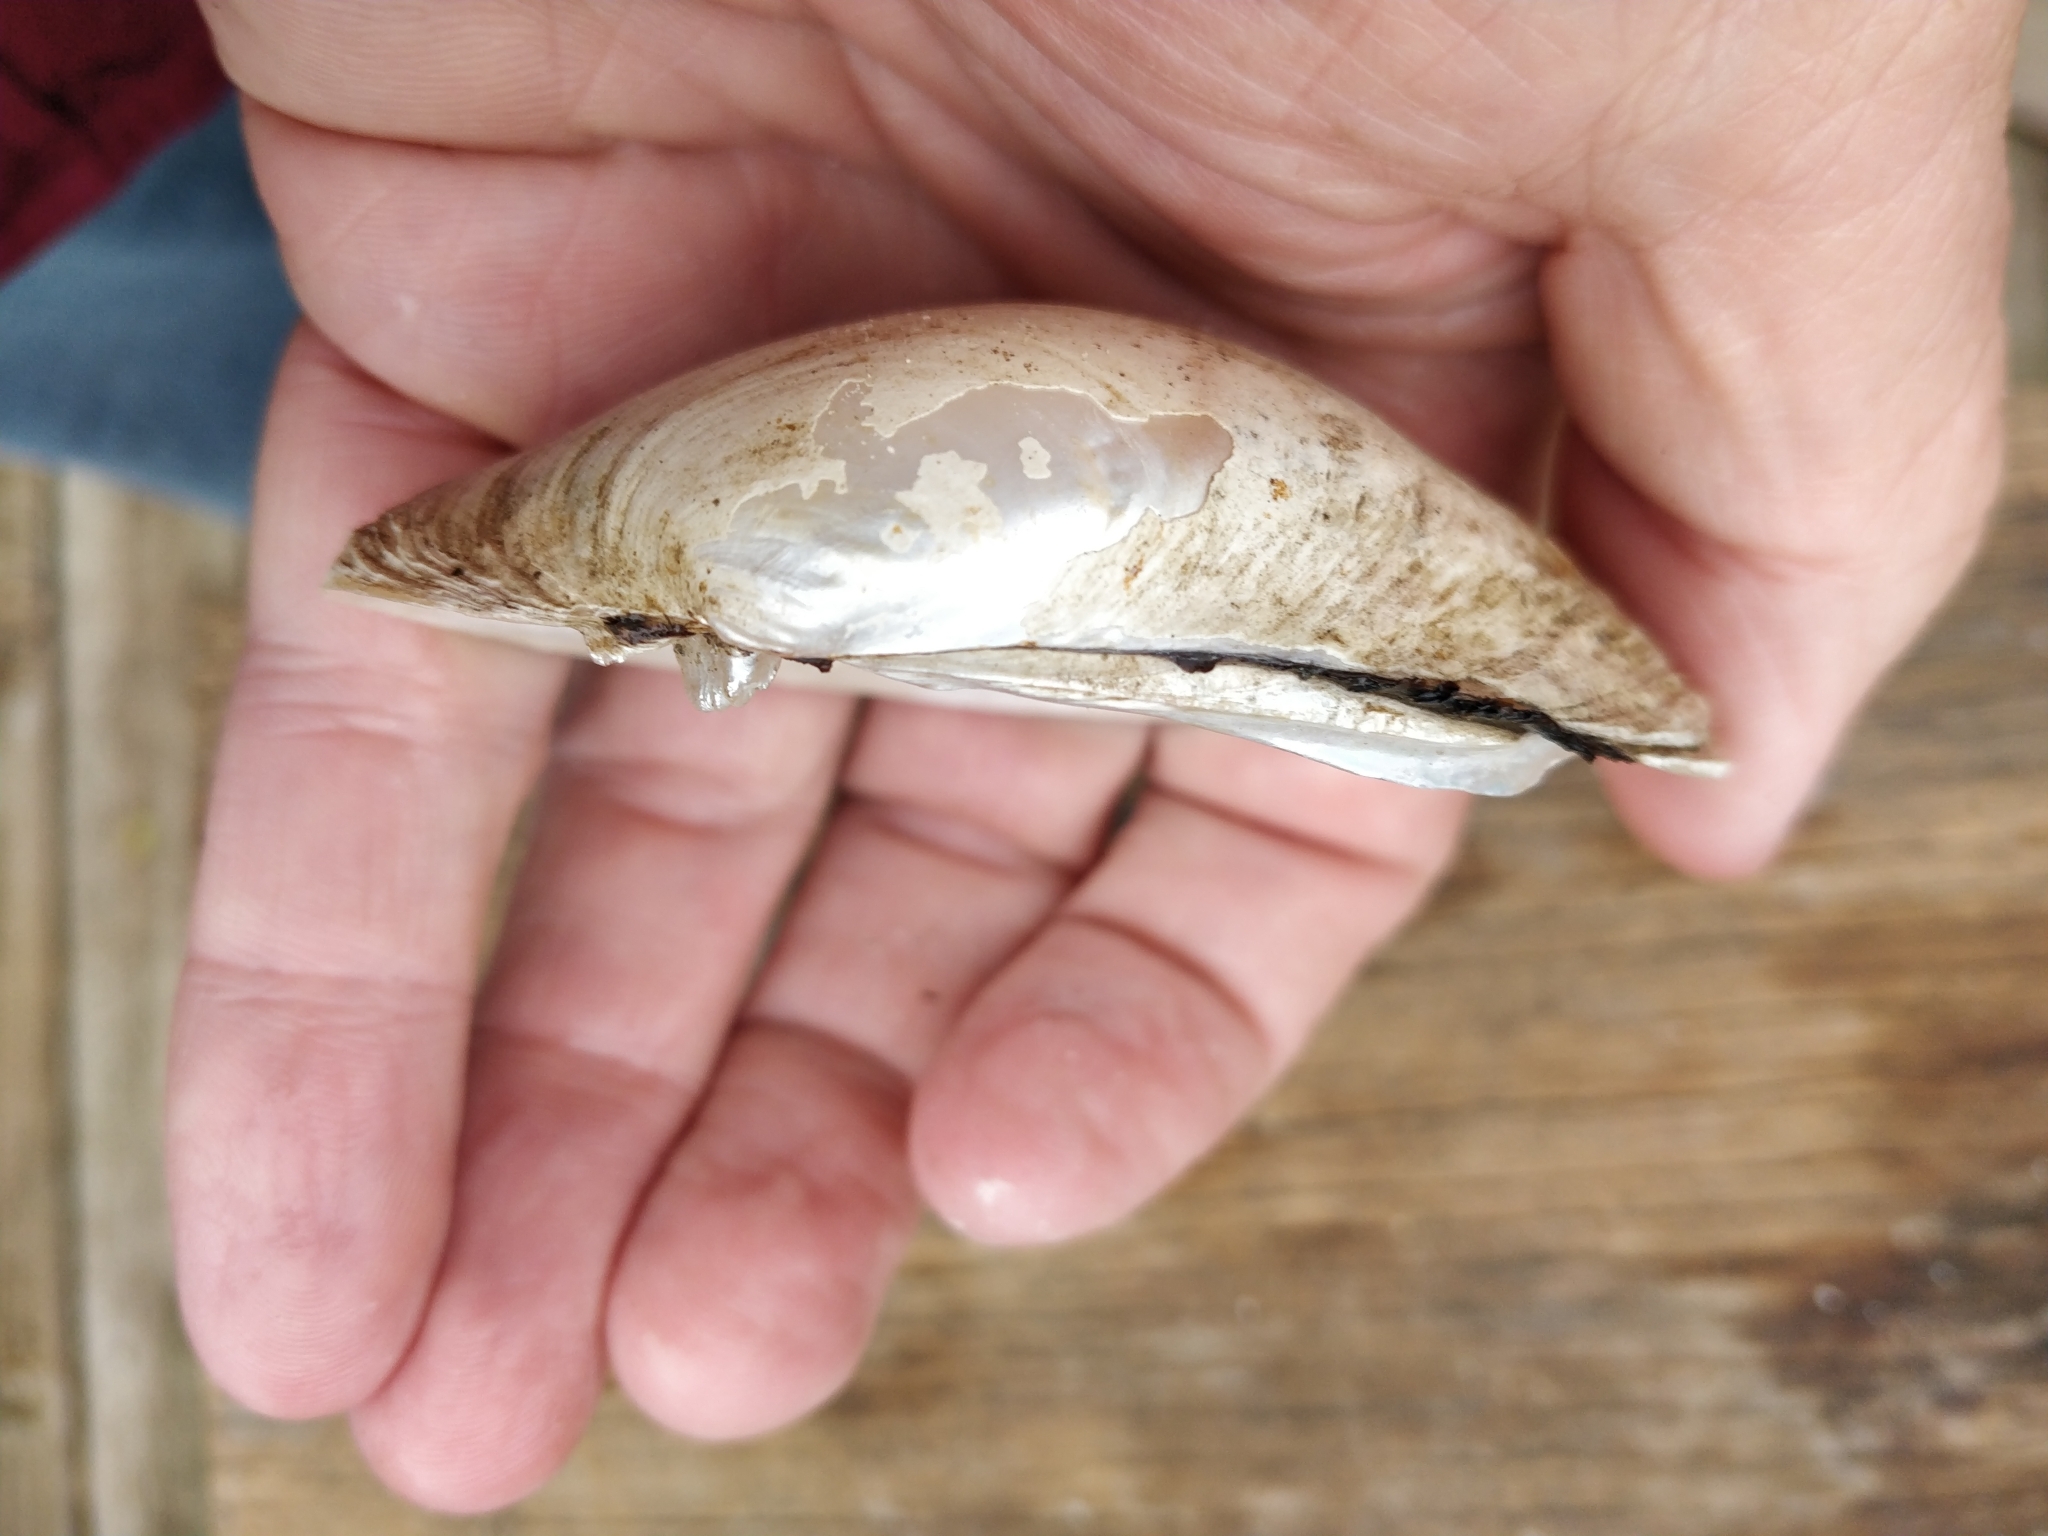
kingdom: Animalia
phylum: Mollusca
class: Bivalvia
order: Unionida
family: Unionidae
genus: Lampsilis
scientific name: Lampsilis cardium
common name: Plain pocketbook
